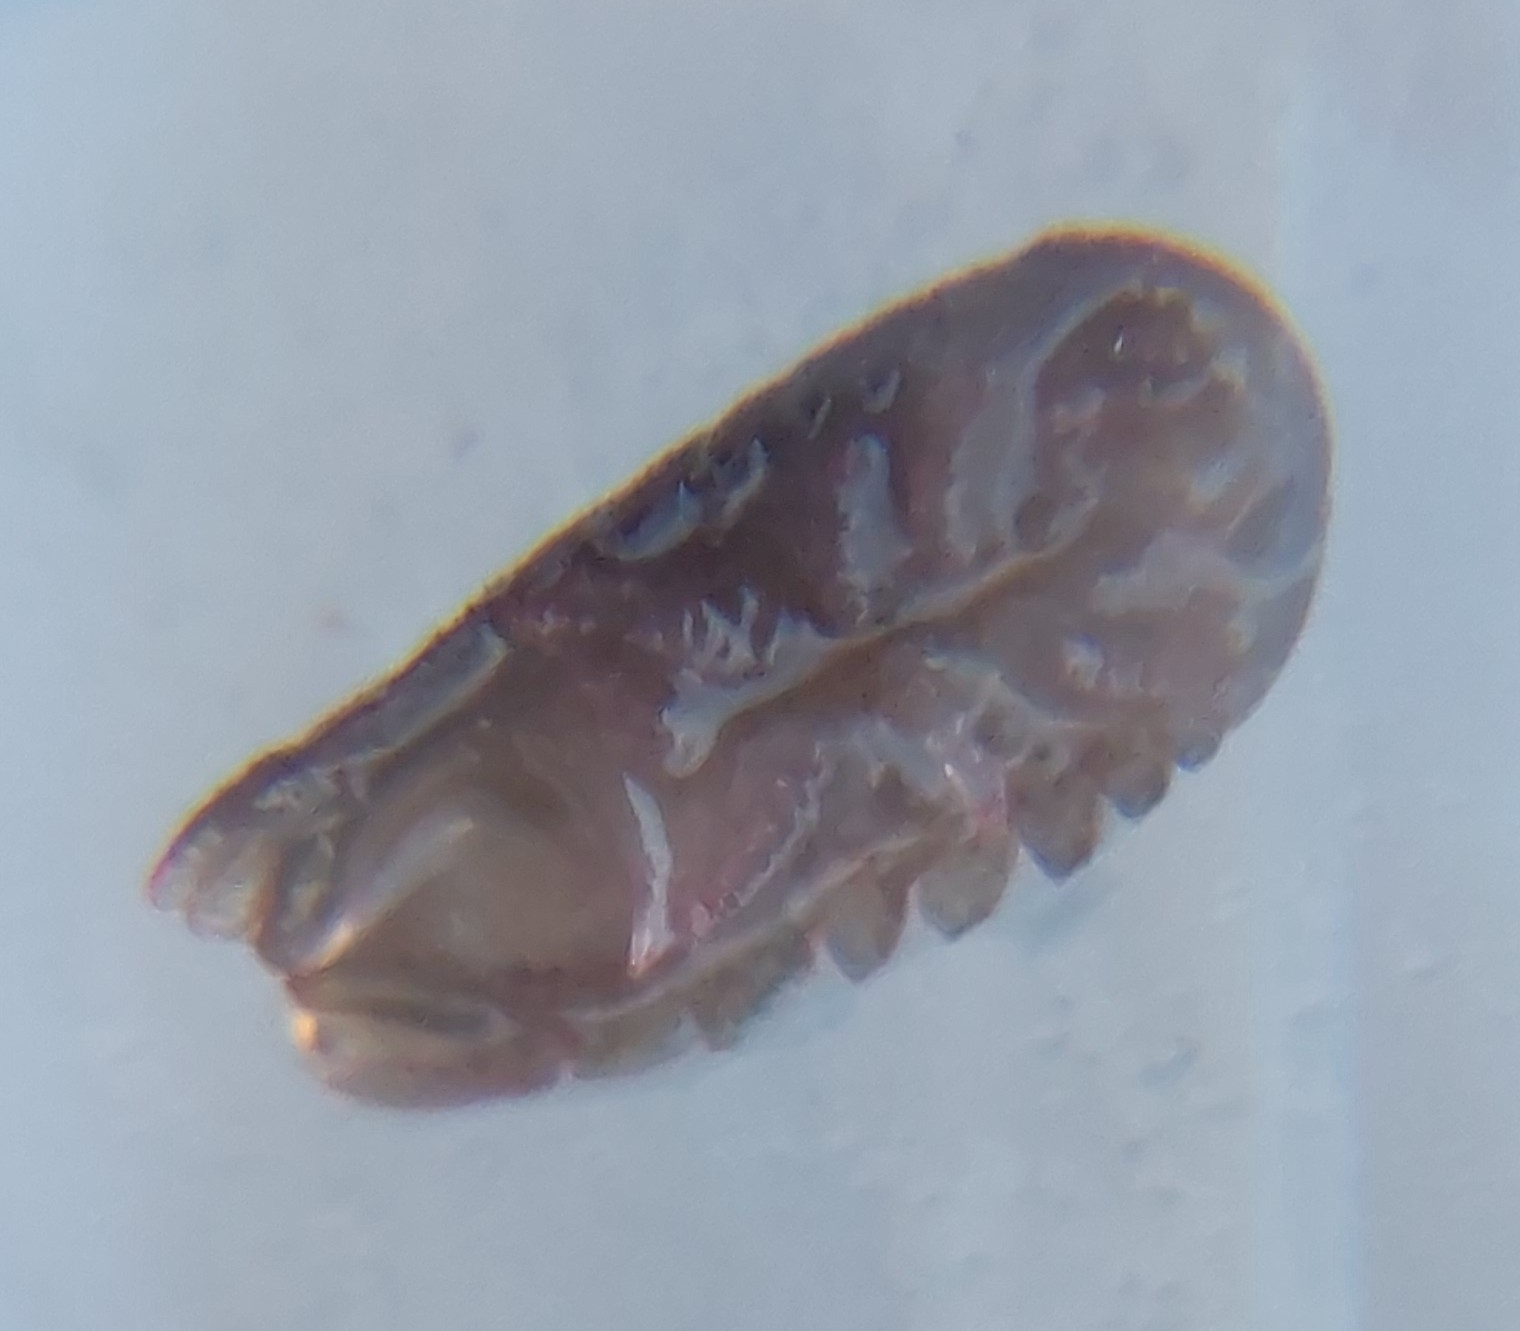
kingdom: Animalia
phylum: Arthropoda
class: Malacostraca
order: Isopoda
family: Sphaeromatidae
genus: Dynamene
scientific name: Dynamene bidentata
